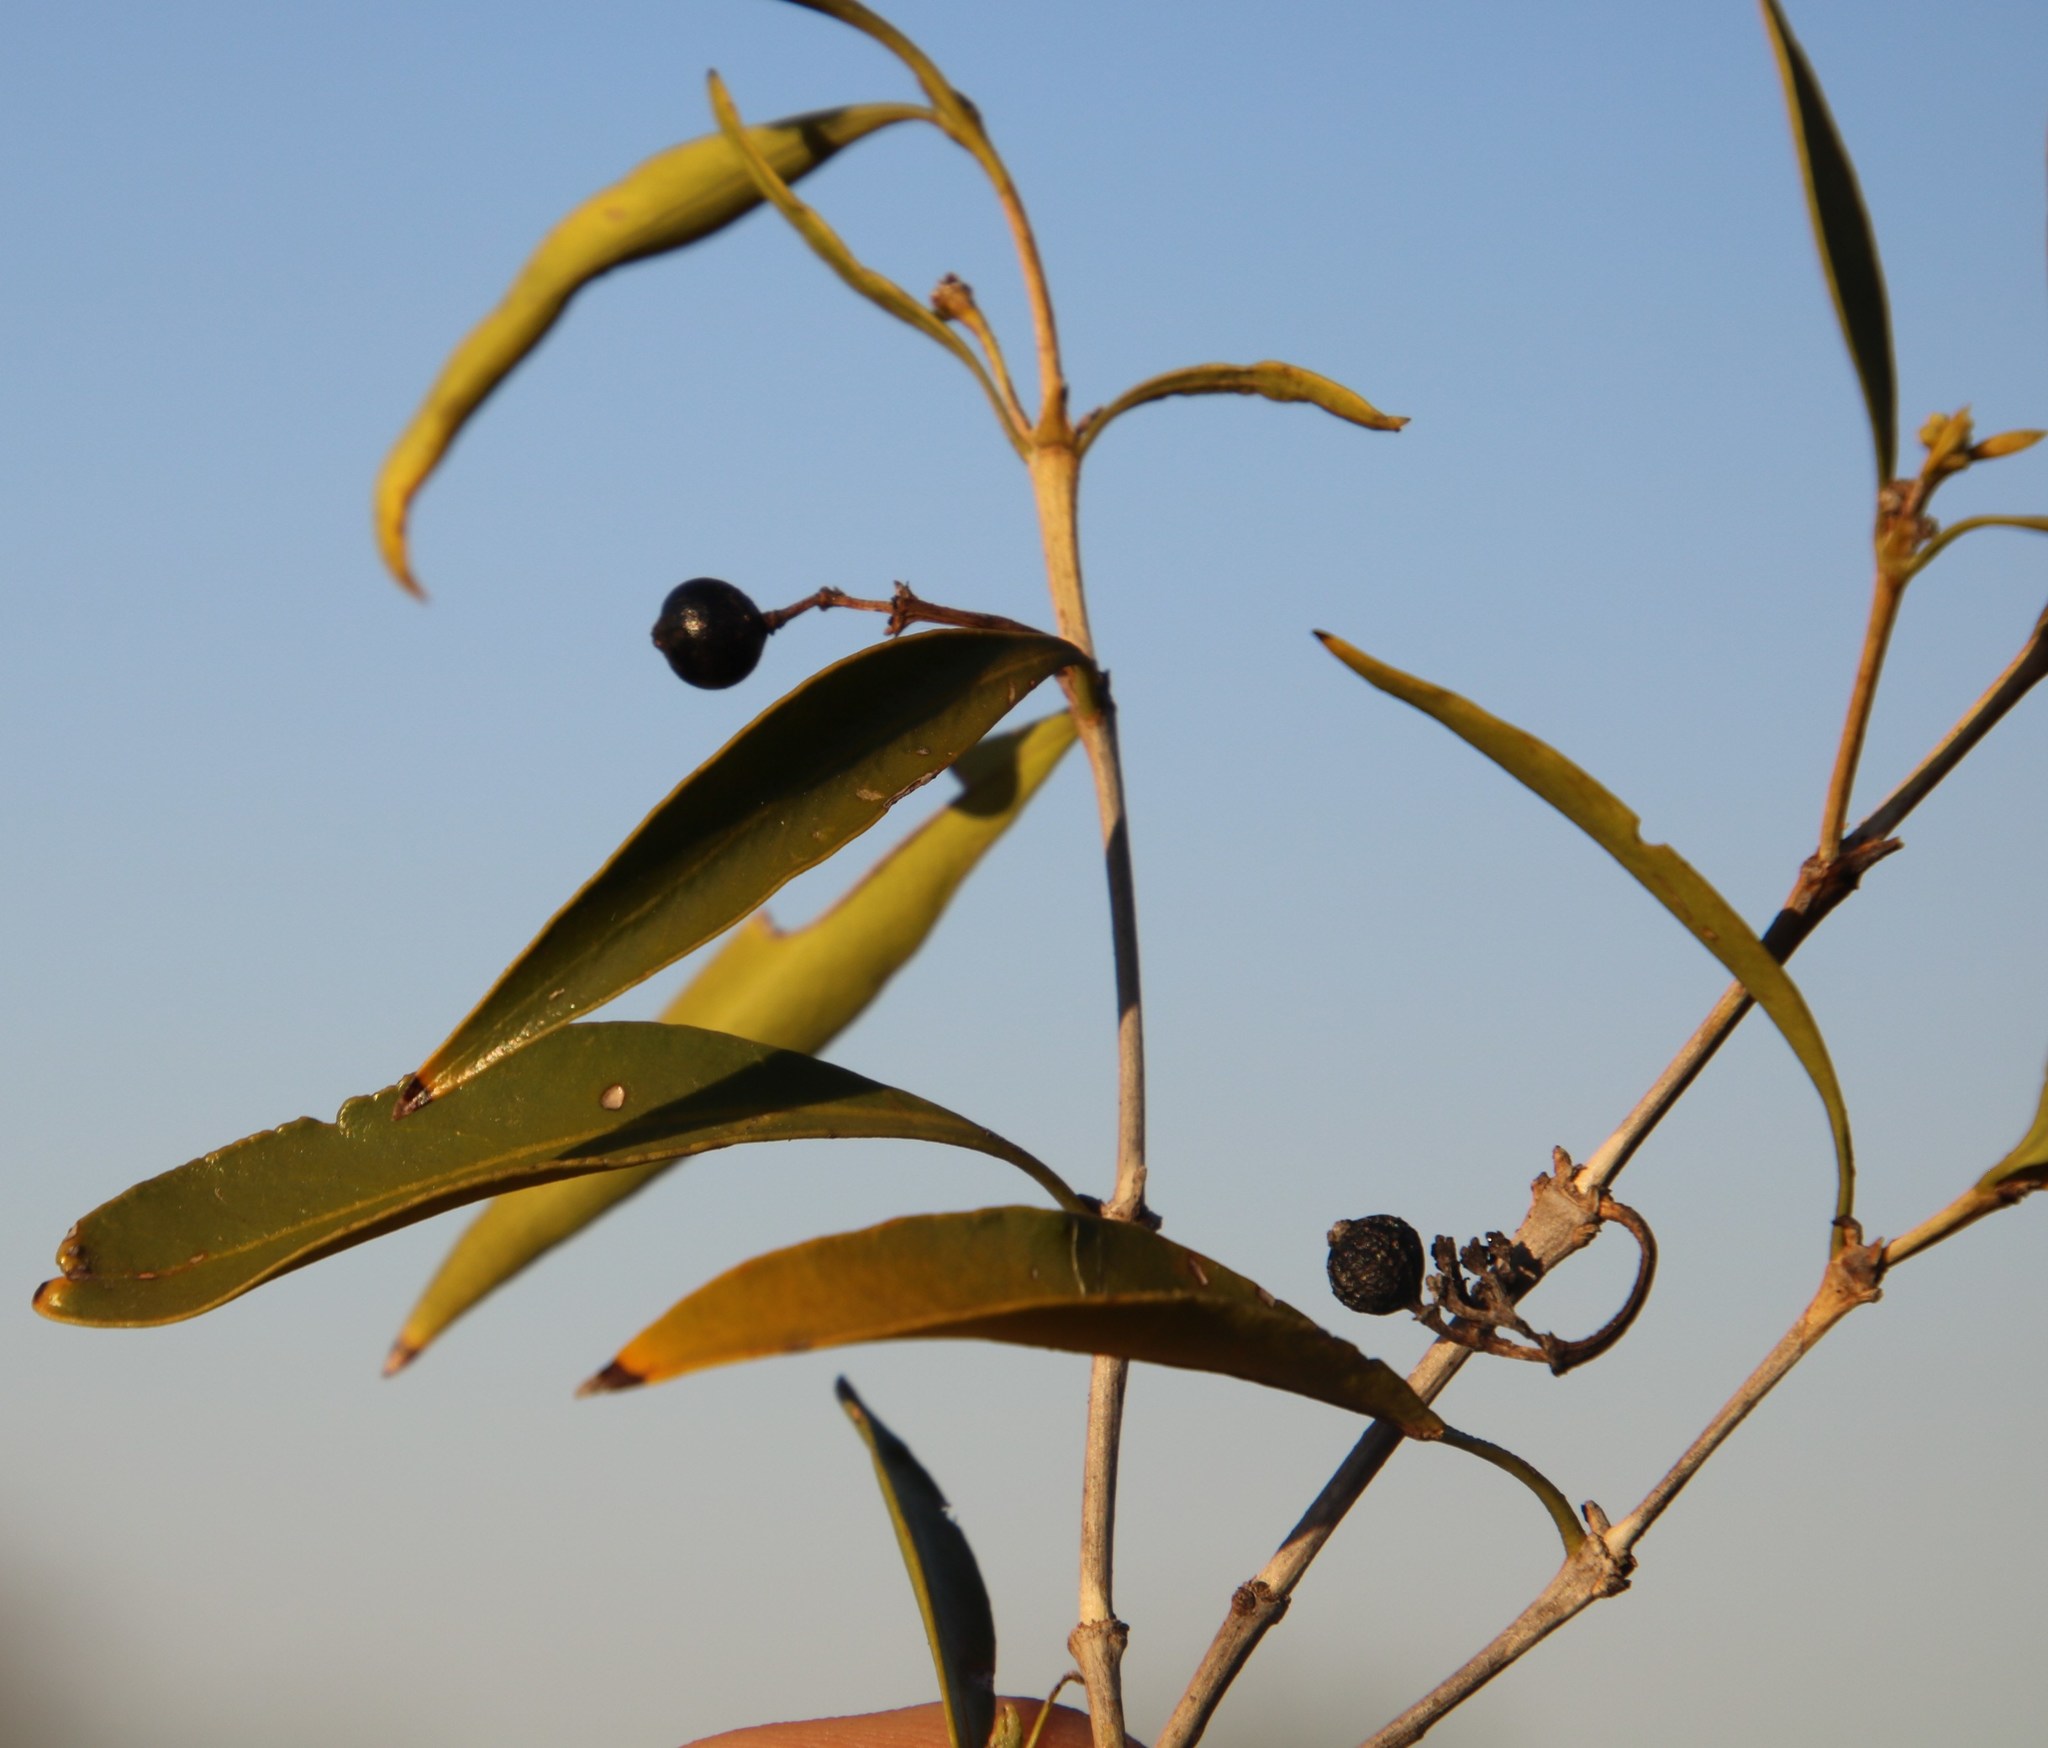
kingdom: Plantae
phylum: Tracheophyta
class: Magnoliopsida
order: Gentianales
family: Rubiaceae
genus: Coptosperma
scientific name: Coptosperma supra-axillare
